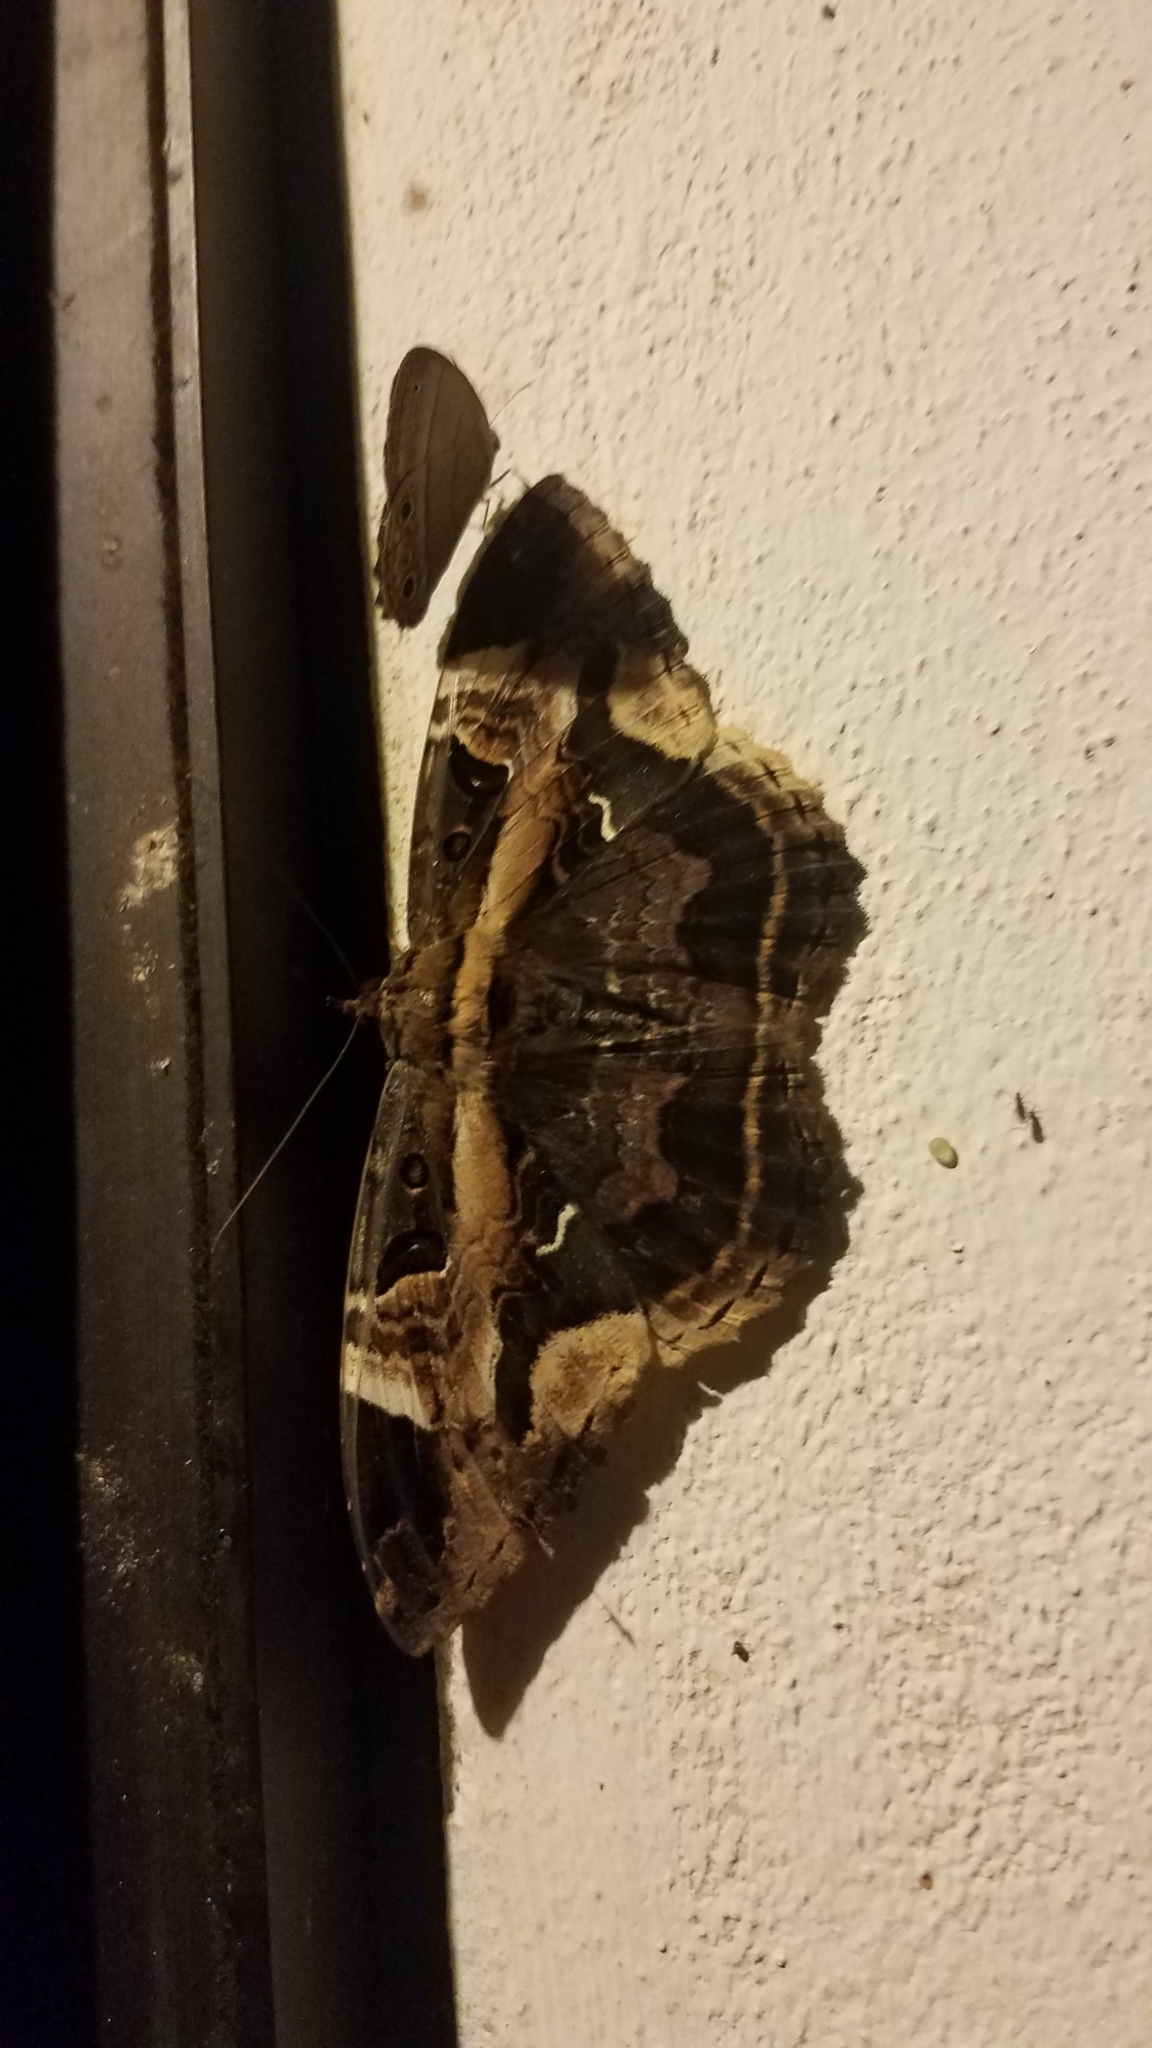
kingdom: Animalia
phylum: Arthropoda
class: Insecta
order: Lepidoptera
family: Erebidae
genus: Feigeria
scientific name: Feigeria herilia
